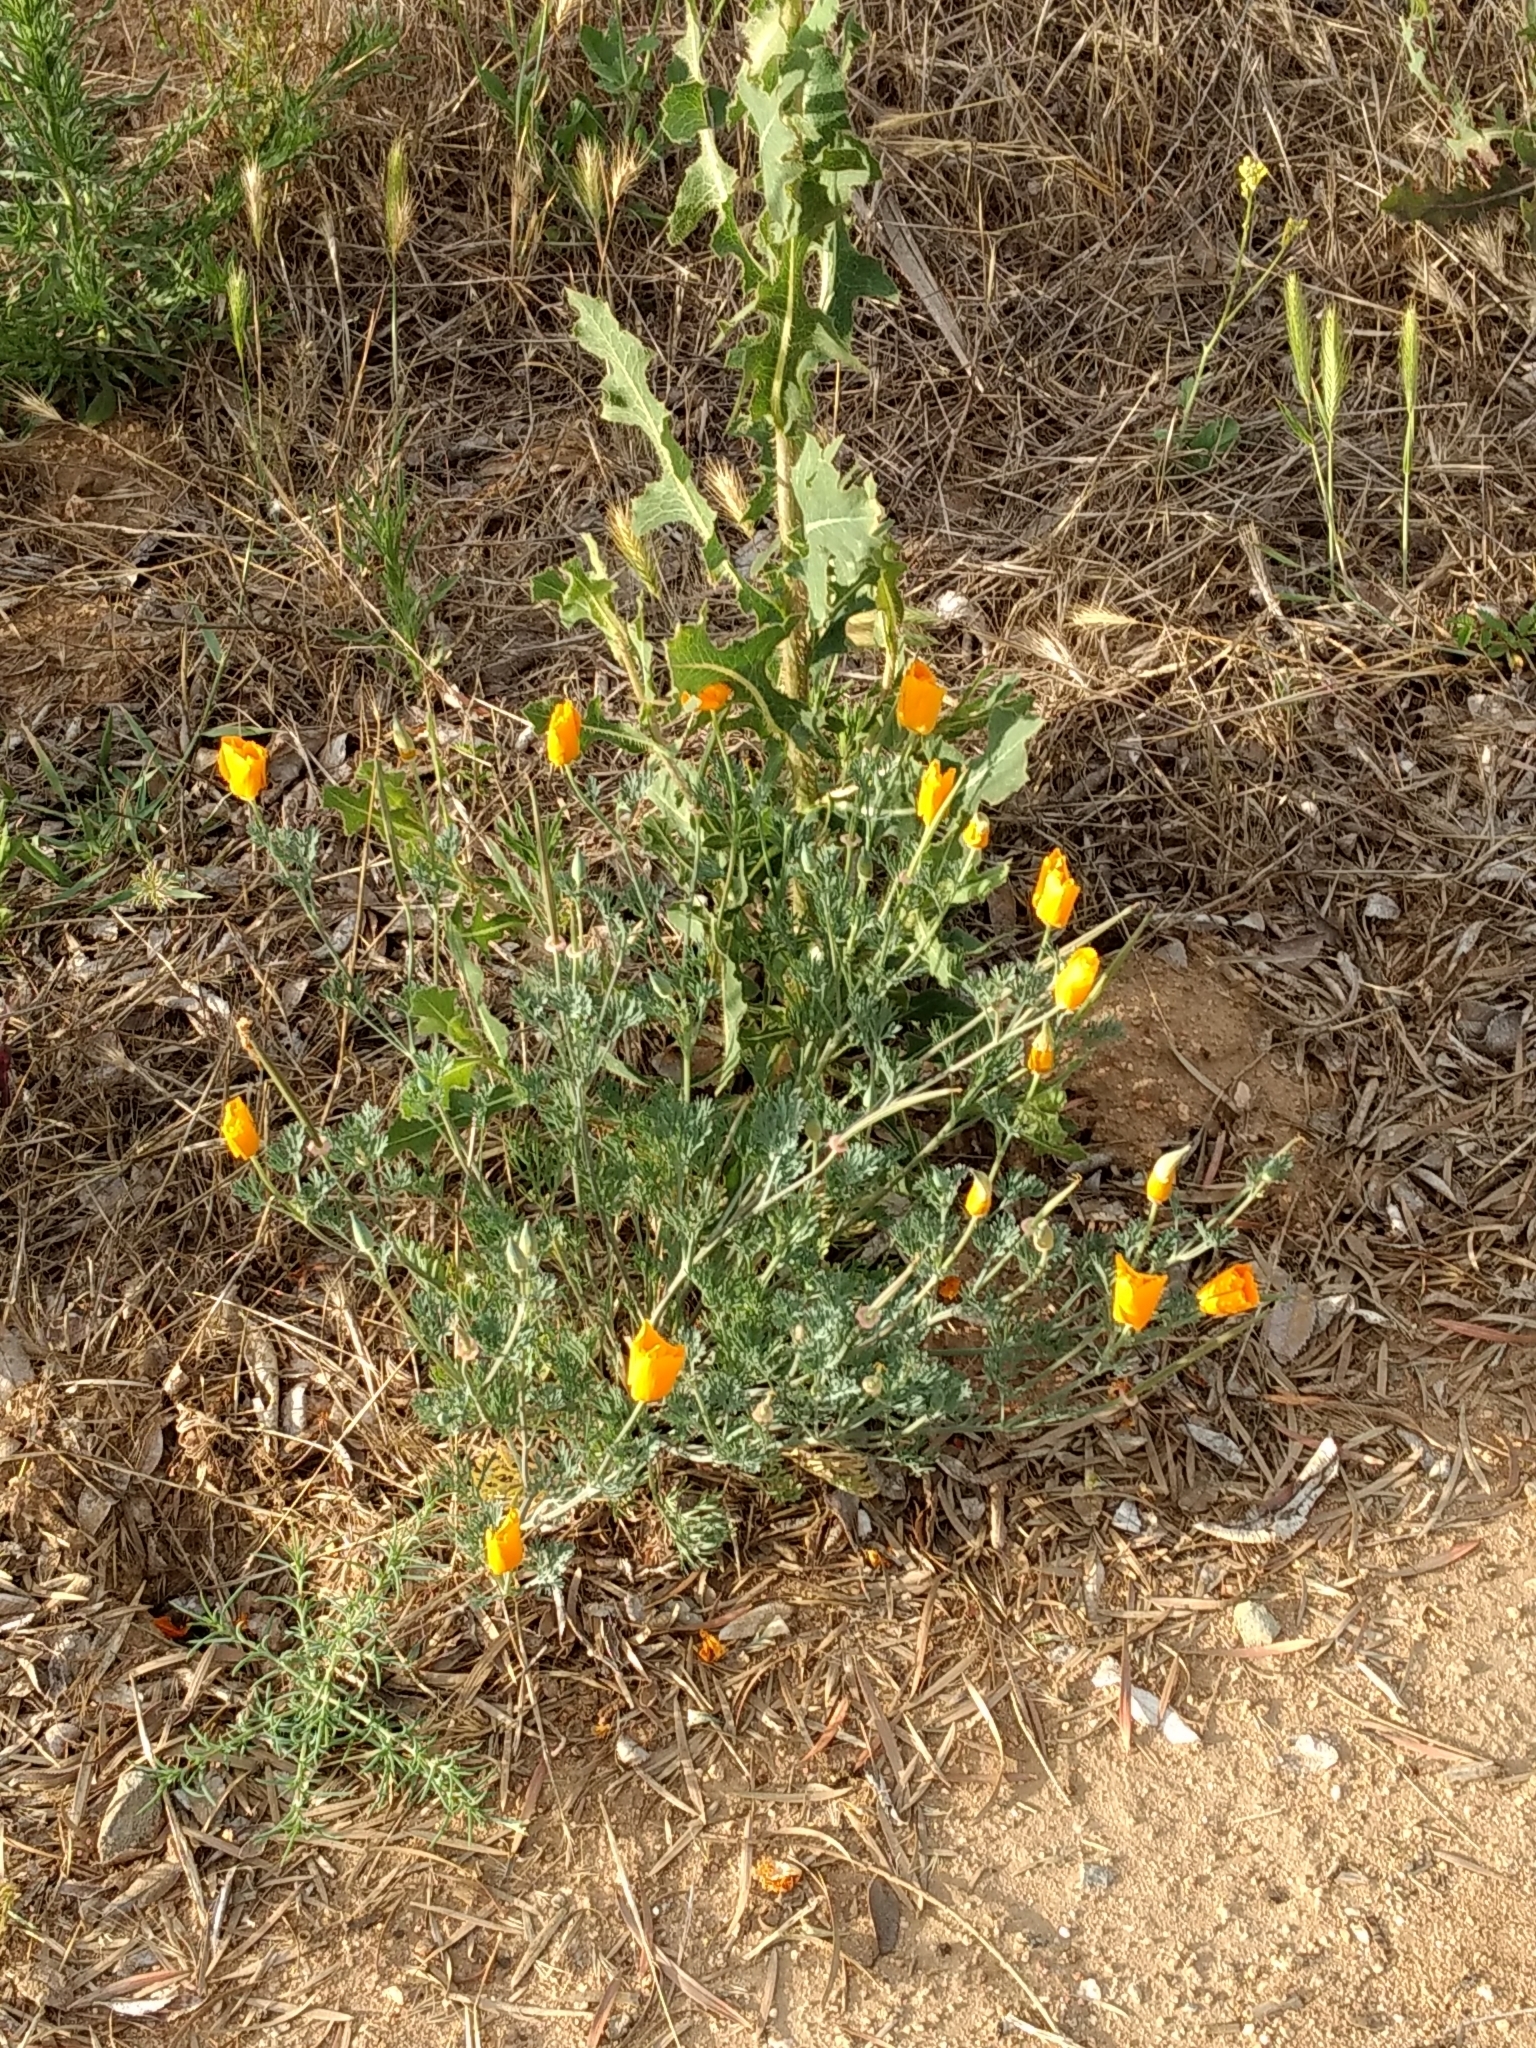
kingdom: Plantae
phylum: Tracheophyta
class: Magnoliopsida
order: Ranunculales
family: Papaveraceae
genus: Eschscholzia
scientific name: Eschscholzia californica
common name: California poppy
